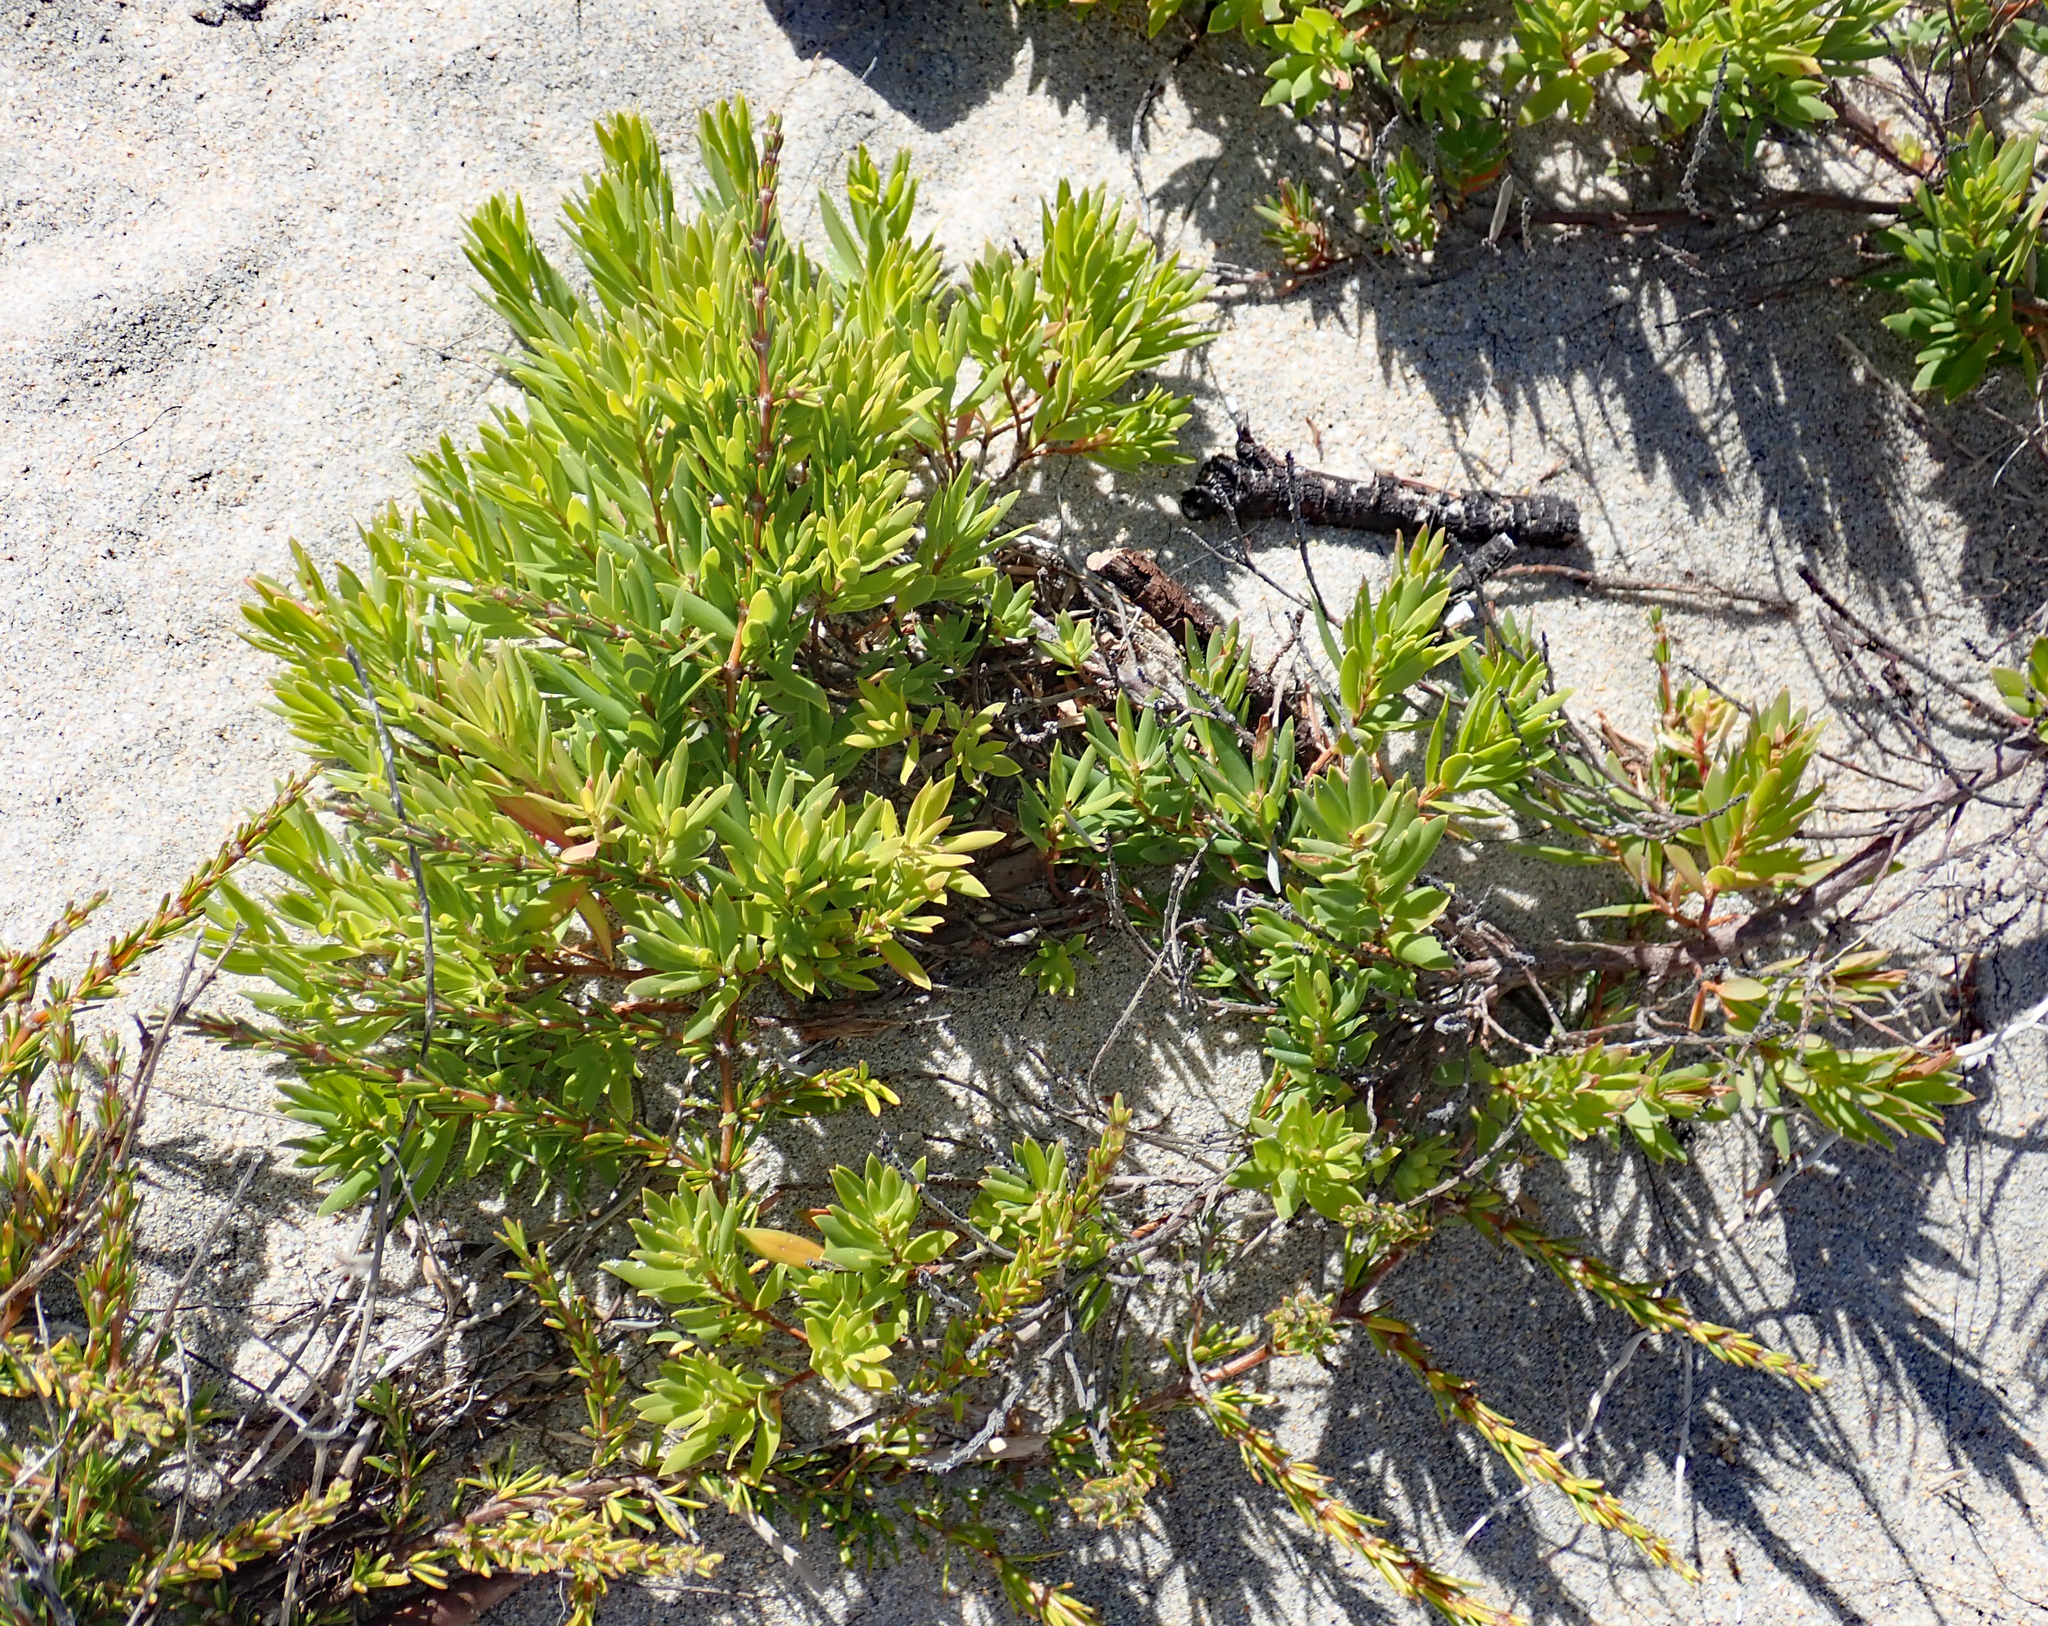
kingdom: Plantae
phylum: Tracheophyta
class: Magnoliopsida
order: Ericales
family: Ericaceae
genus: Leptecophylla
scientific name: Leptecophylla parvifolia
